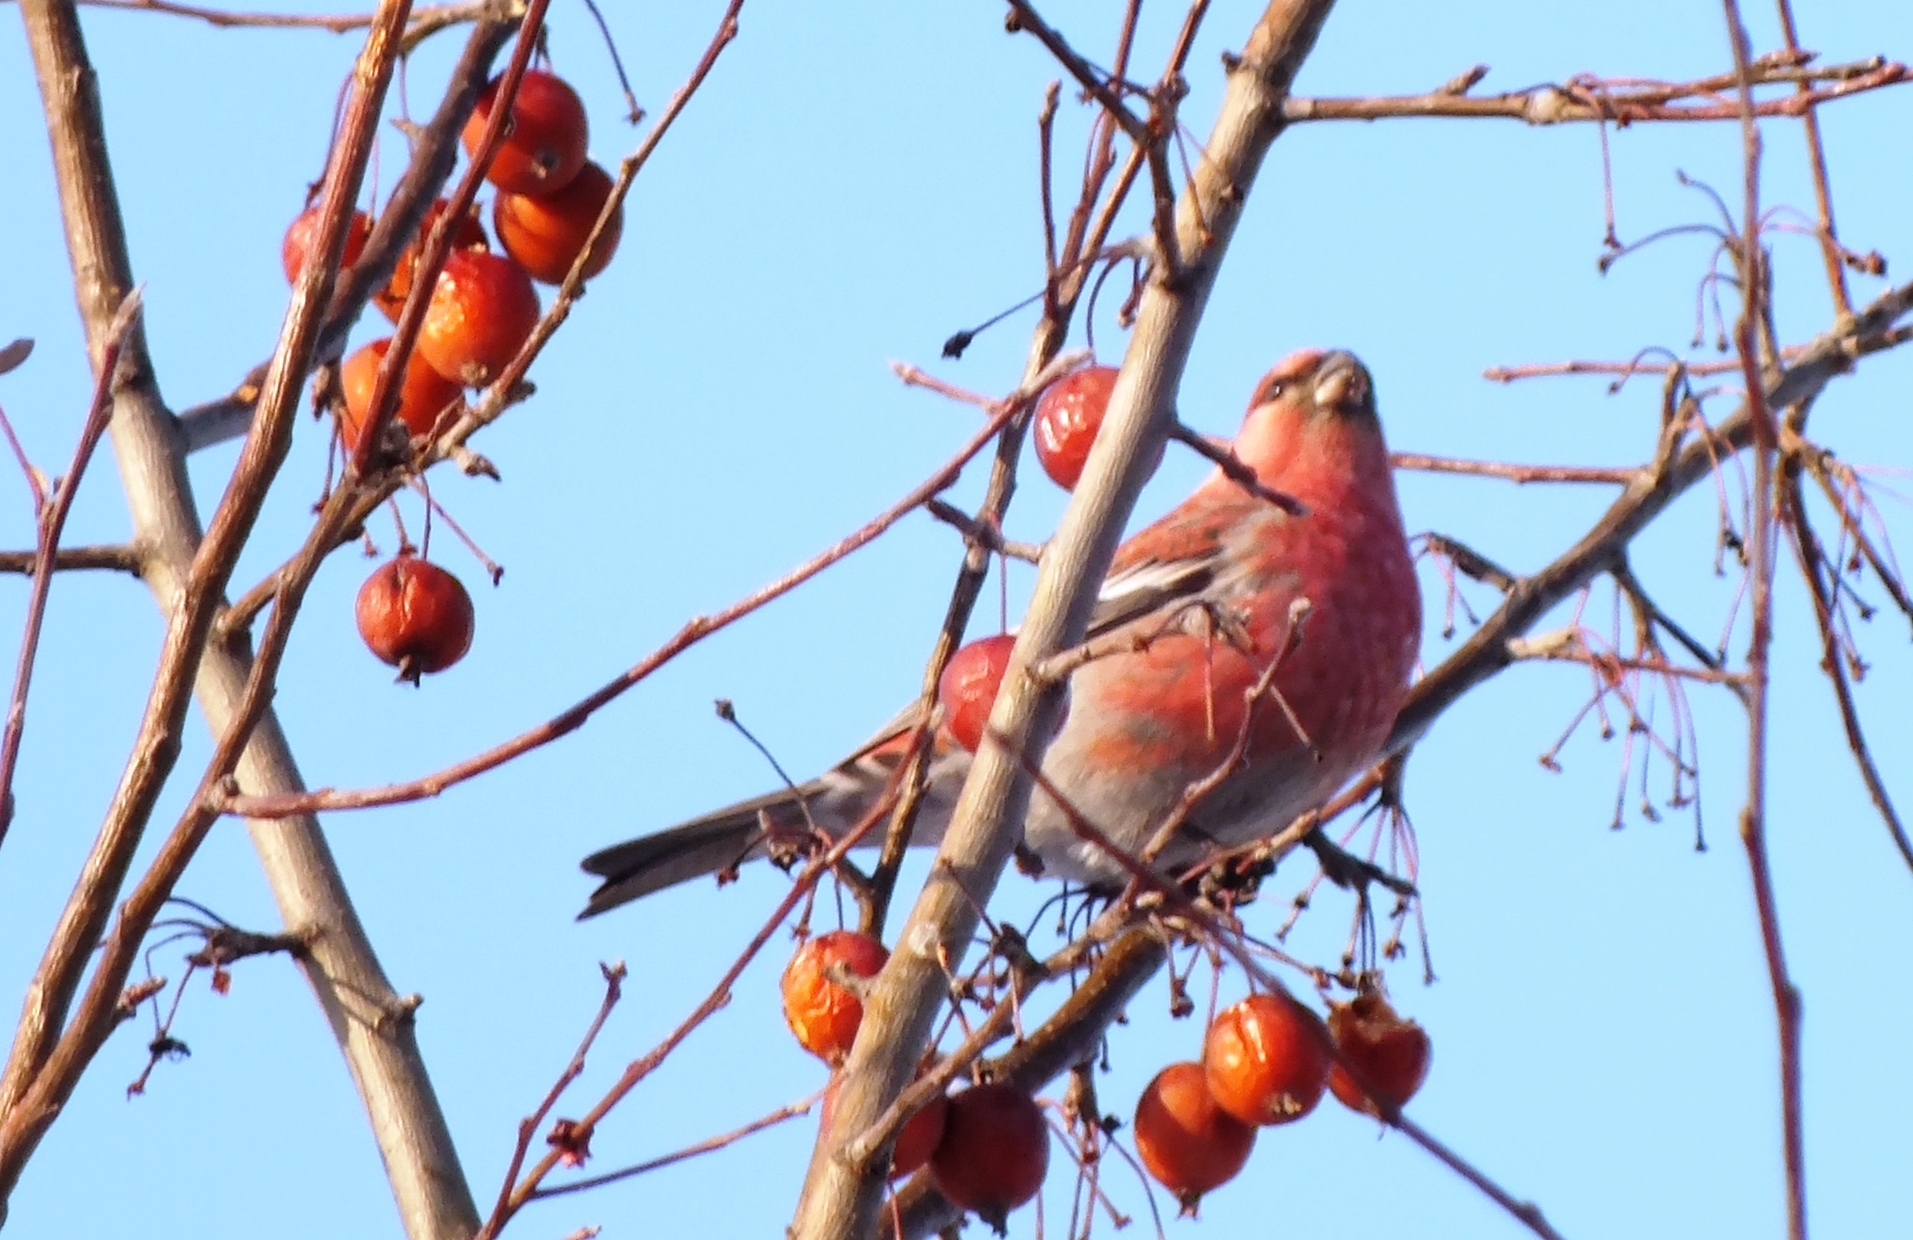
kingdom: Animalia
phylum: Chordata
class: Aves
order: Passeriformes
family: Fringillidae
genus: Pinicola
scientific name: Pinicola enucleator
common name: Pine grosbeak
